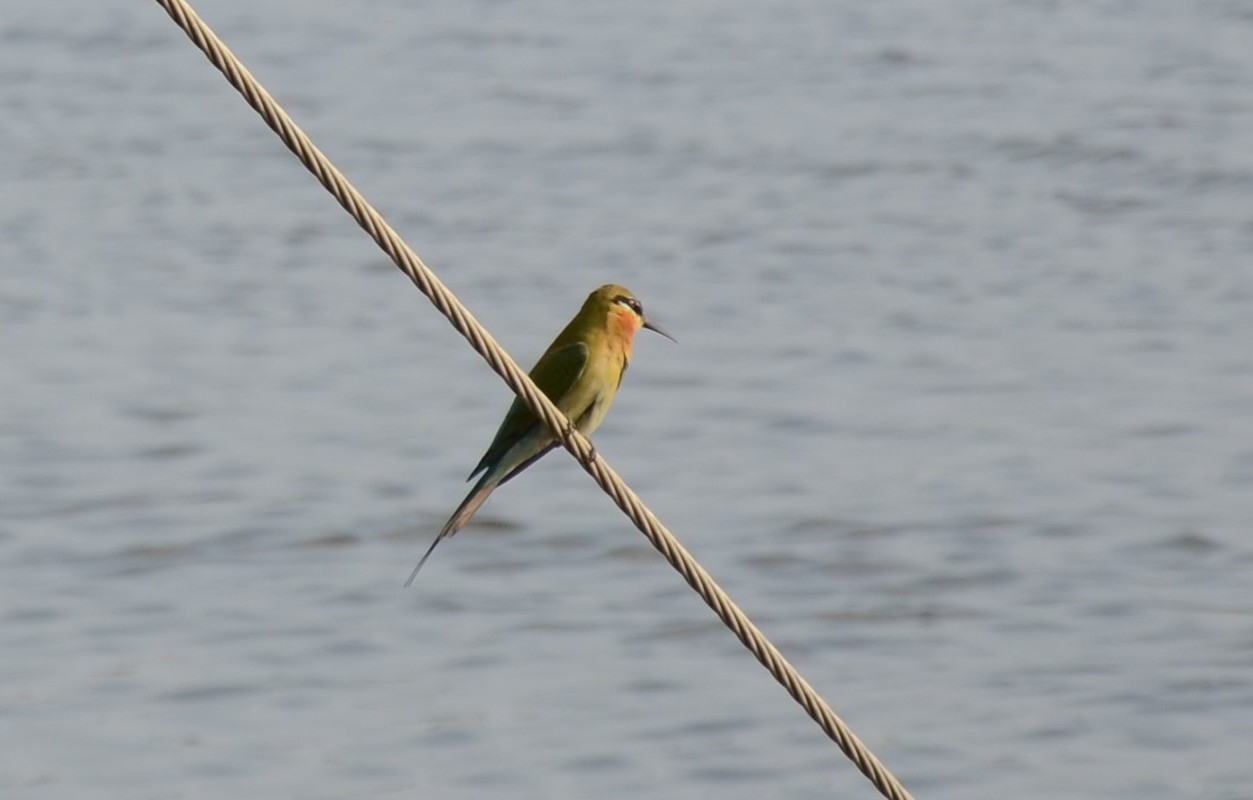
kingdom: Animalia
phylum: Chordata
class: Aves
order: Coraciiformes
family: Meropidae
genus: Merops
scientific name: Merops philippinus
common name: Blue-tailed bee-eater
